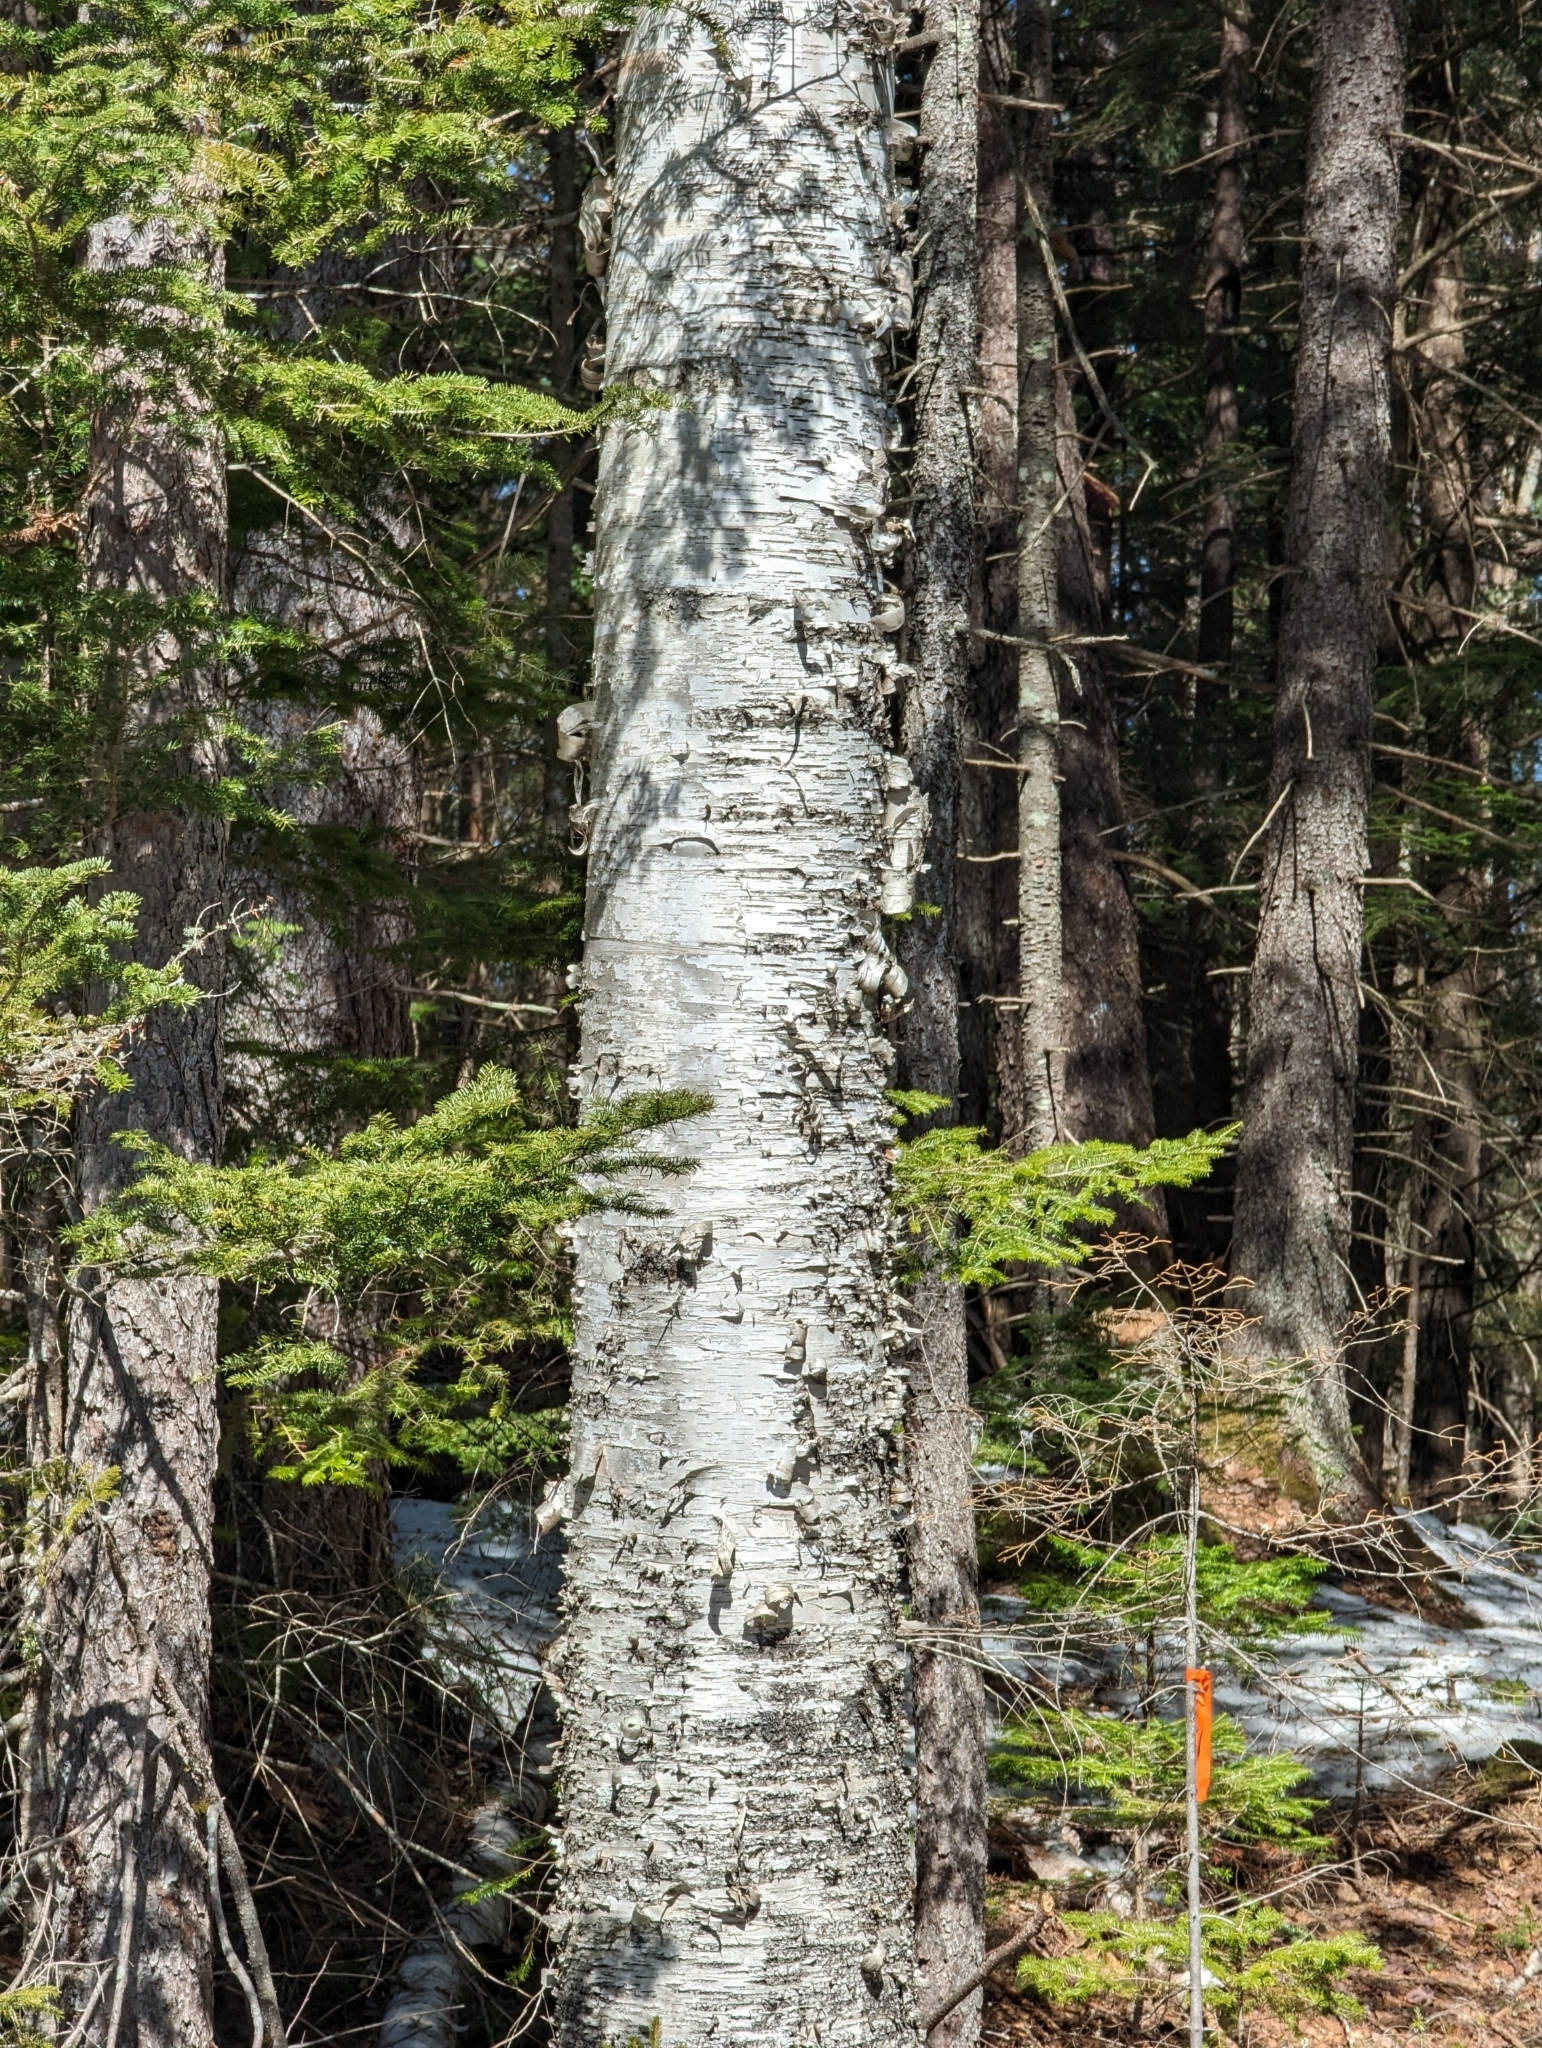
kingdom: Plantae
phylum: Tracheophyta
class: Magnoliopsida
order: Fagales
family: Betulaceae
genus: Betula
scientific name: Betula papyrifera
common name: Paper birch
